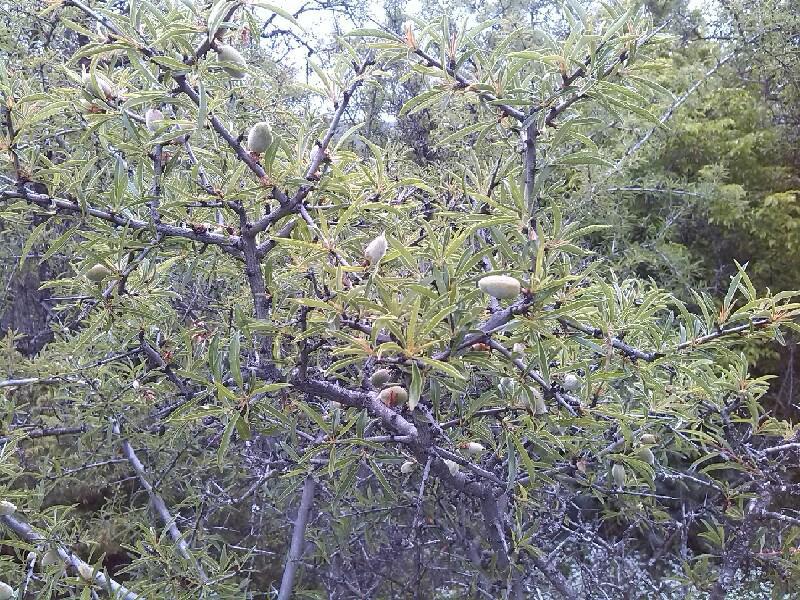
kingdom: Plantae
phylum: Tracheophyta
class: Magnoliopsida
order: Rosales
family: Rosaceae
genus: Prunus
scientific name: Prunus webbii
